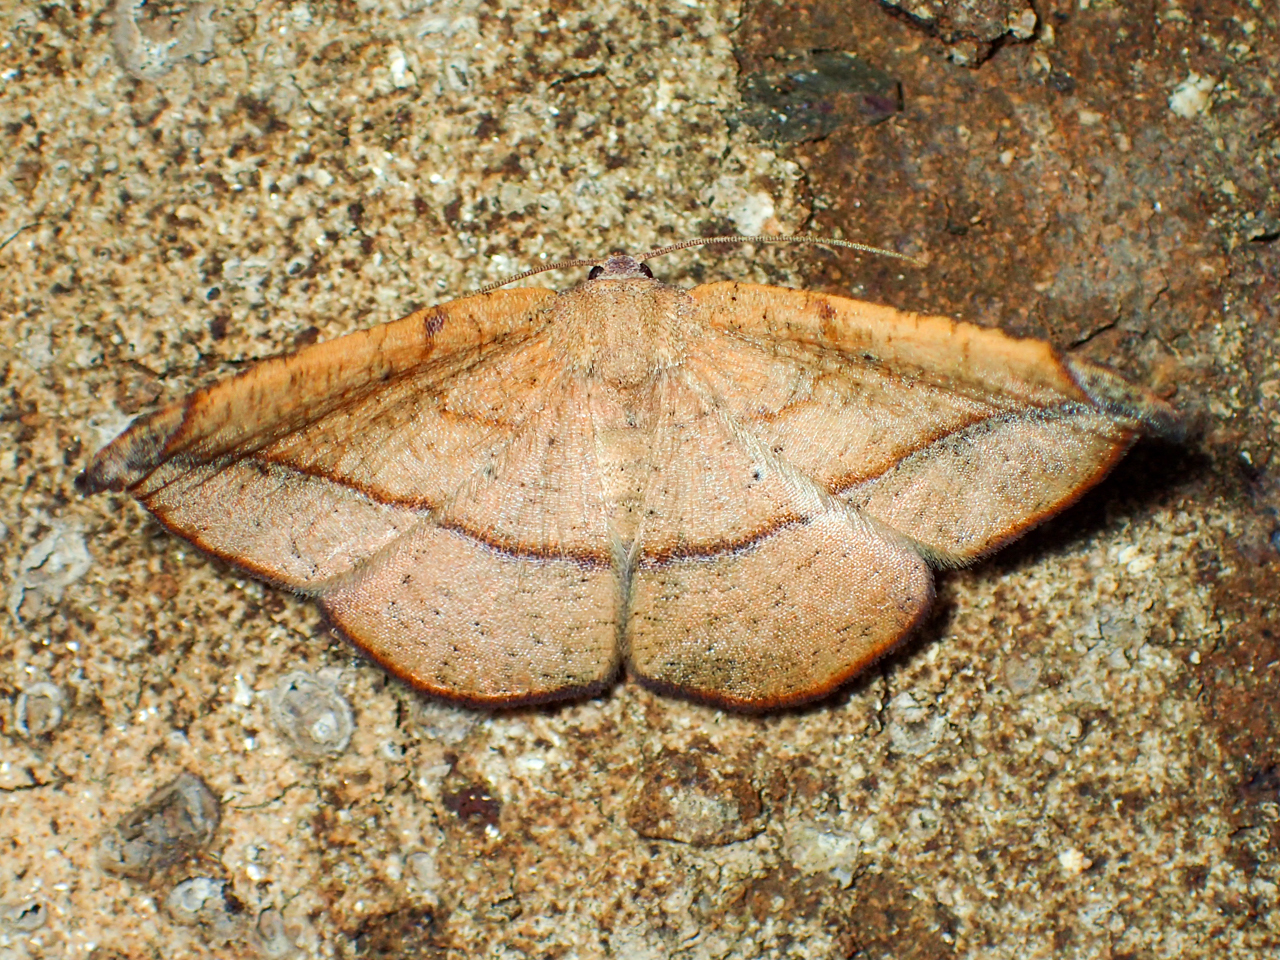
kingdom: Animalia
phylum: Arthropoda
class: Insecta
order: Lepidoptera
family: Geometridae
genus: Patalene
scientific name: Patalene olyzonaria
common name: Juniper geometer moth
